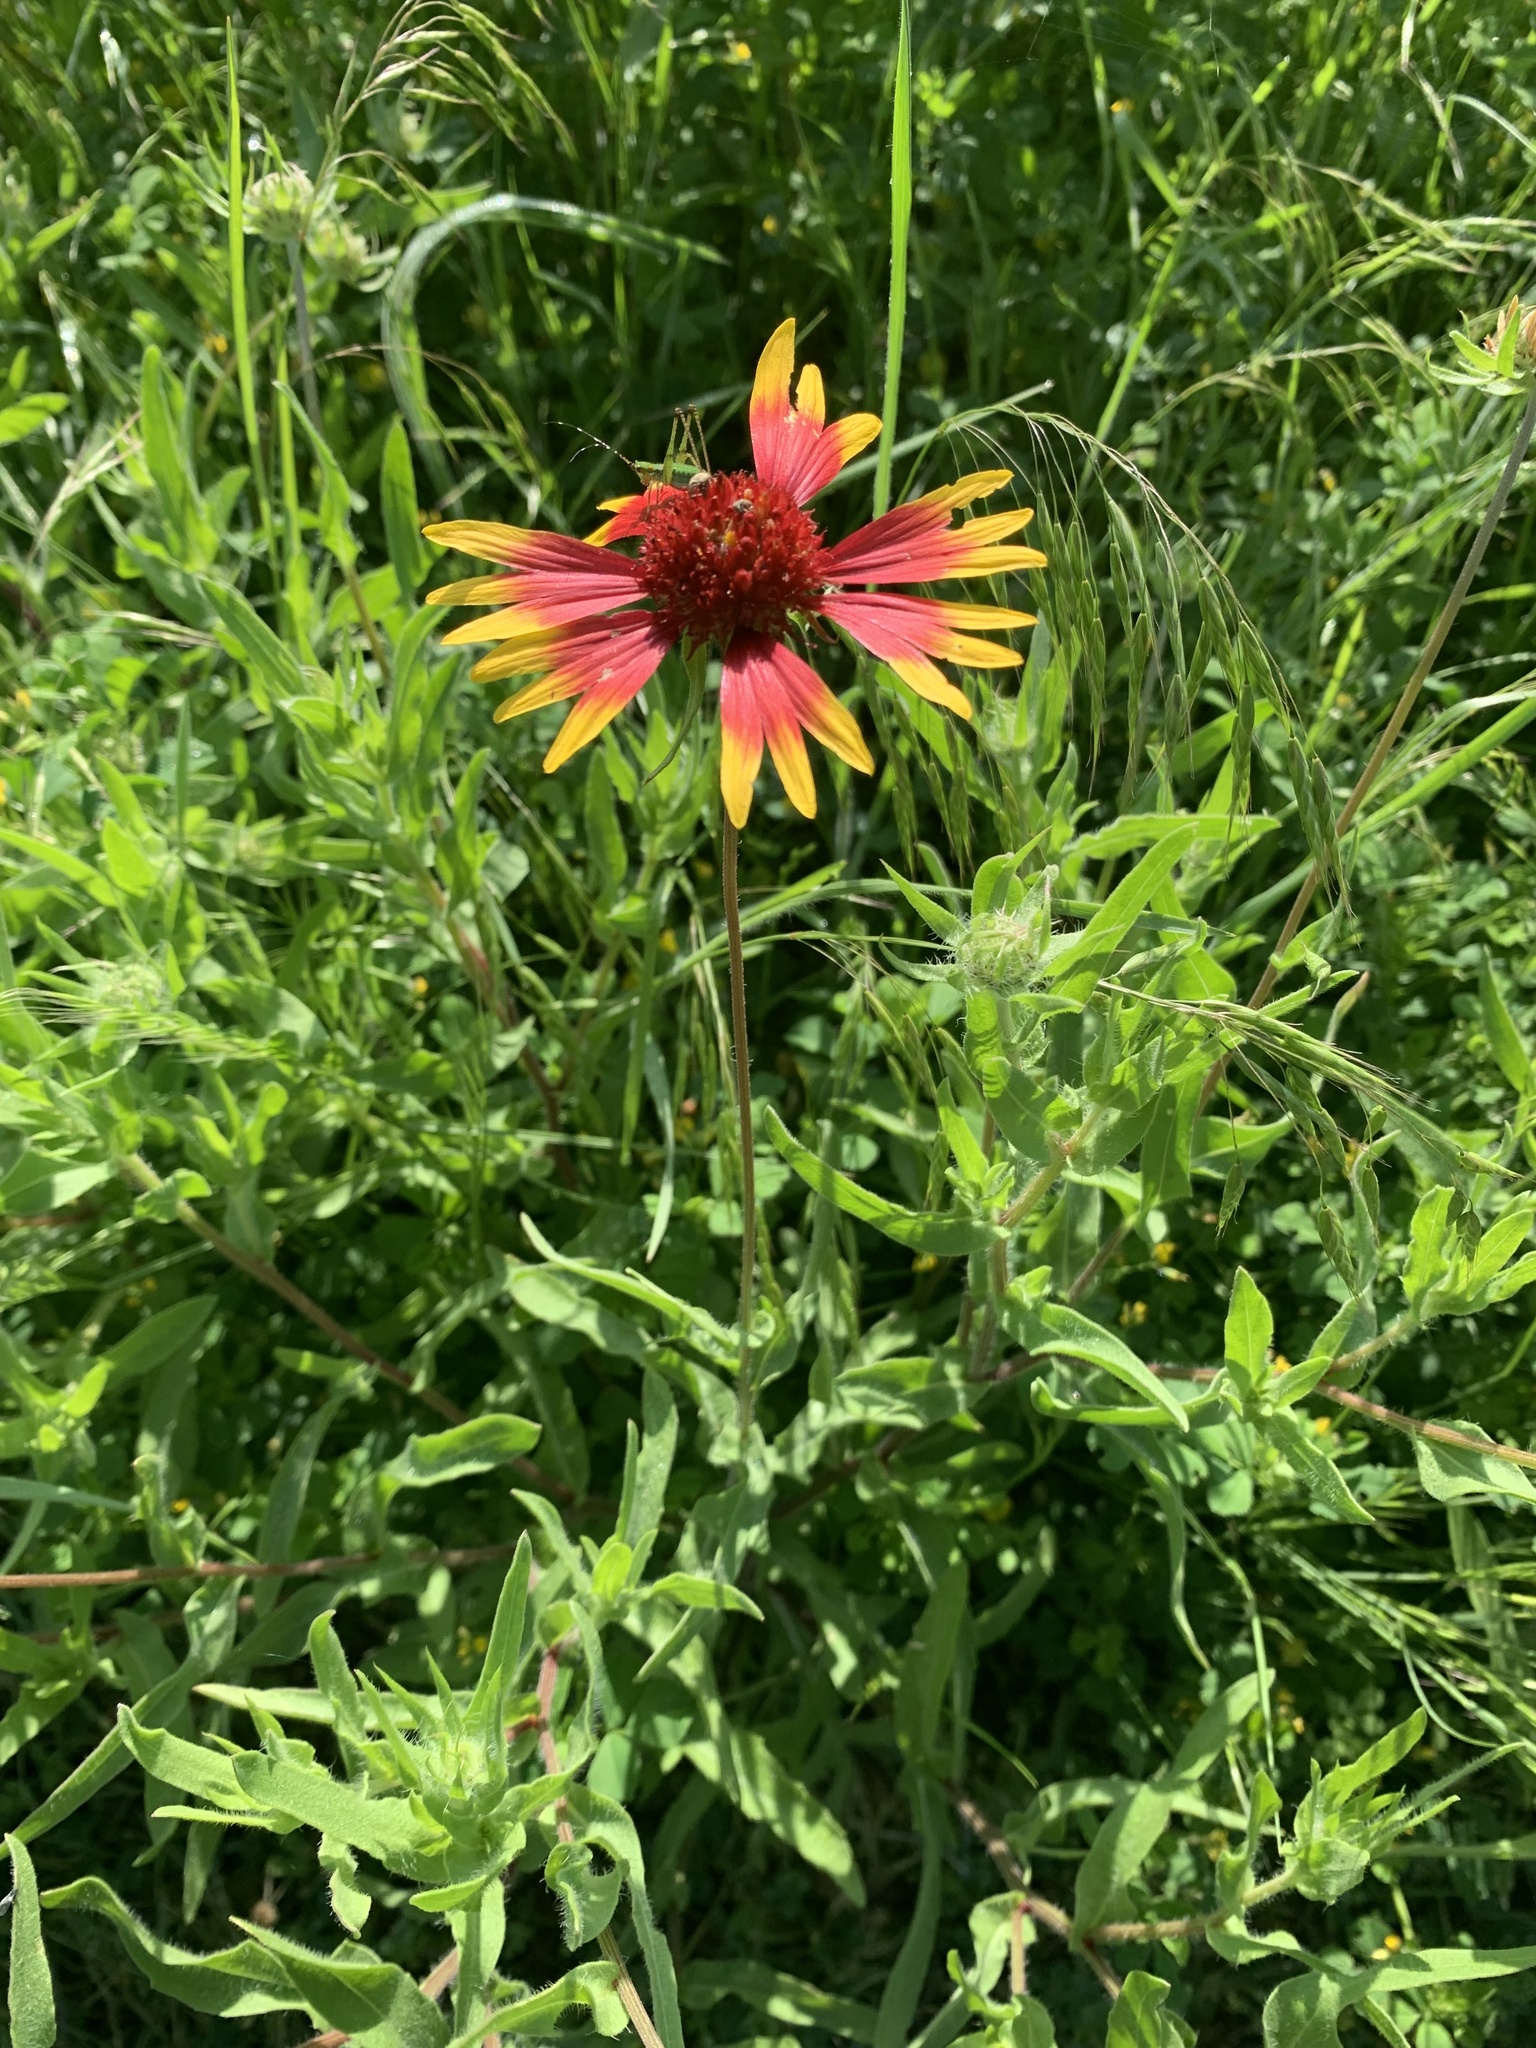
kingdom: Plantae
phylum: Tracheophyta
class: Magnoliopsida
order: Asterales
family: Asteraceae
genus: Gaillardia
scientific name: Gaillardia pulchella
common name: Firewheel
